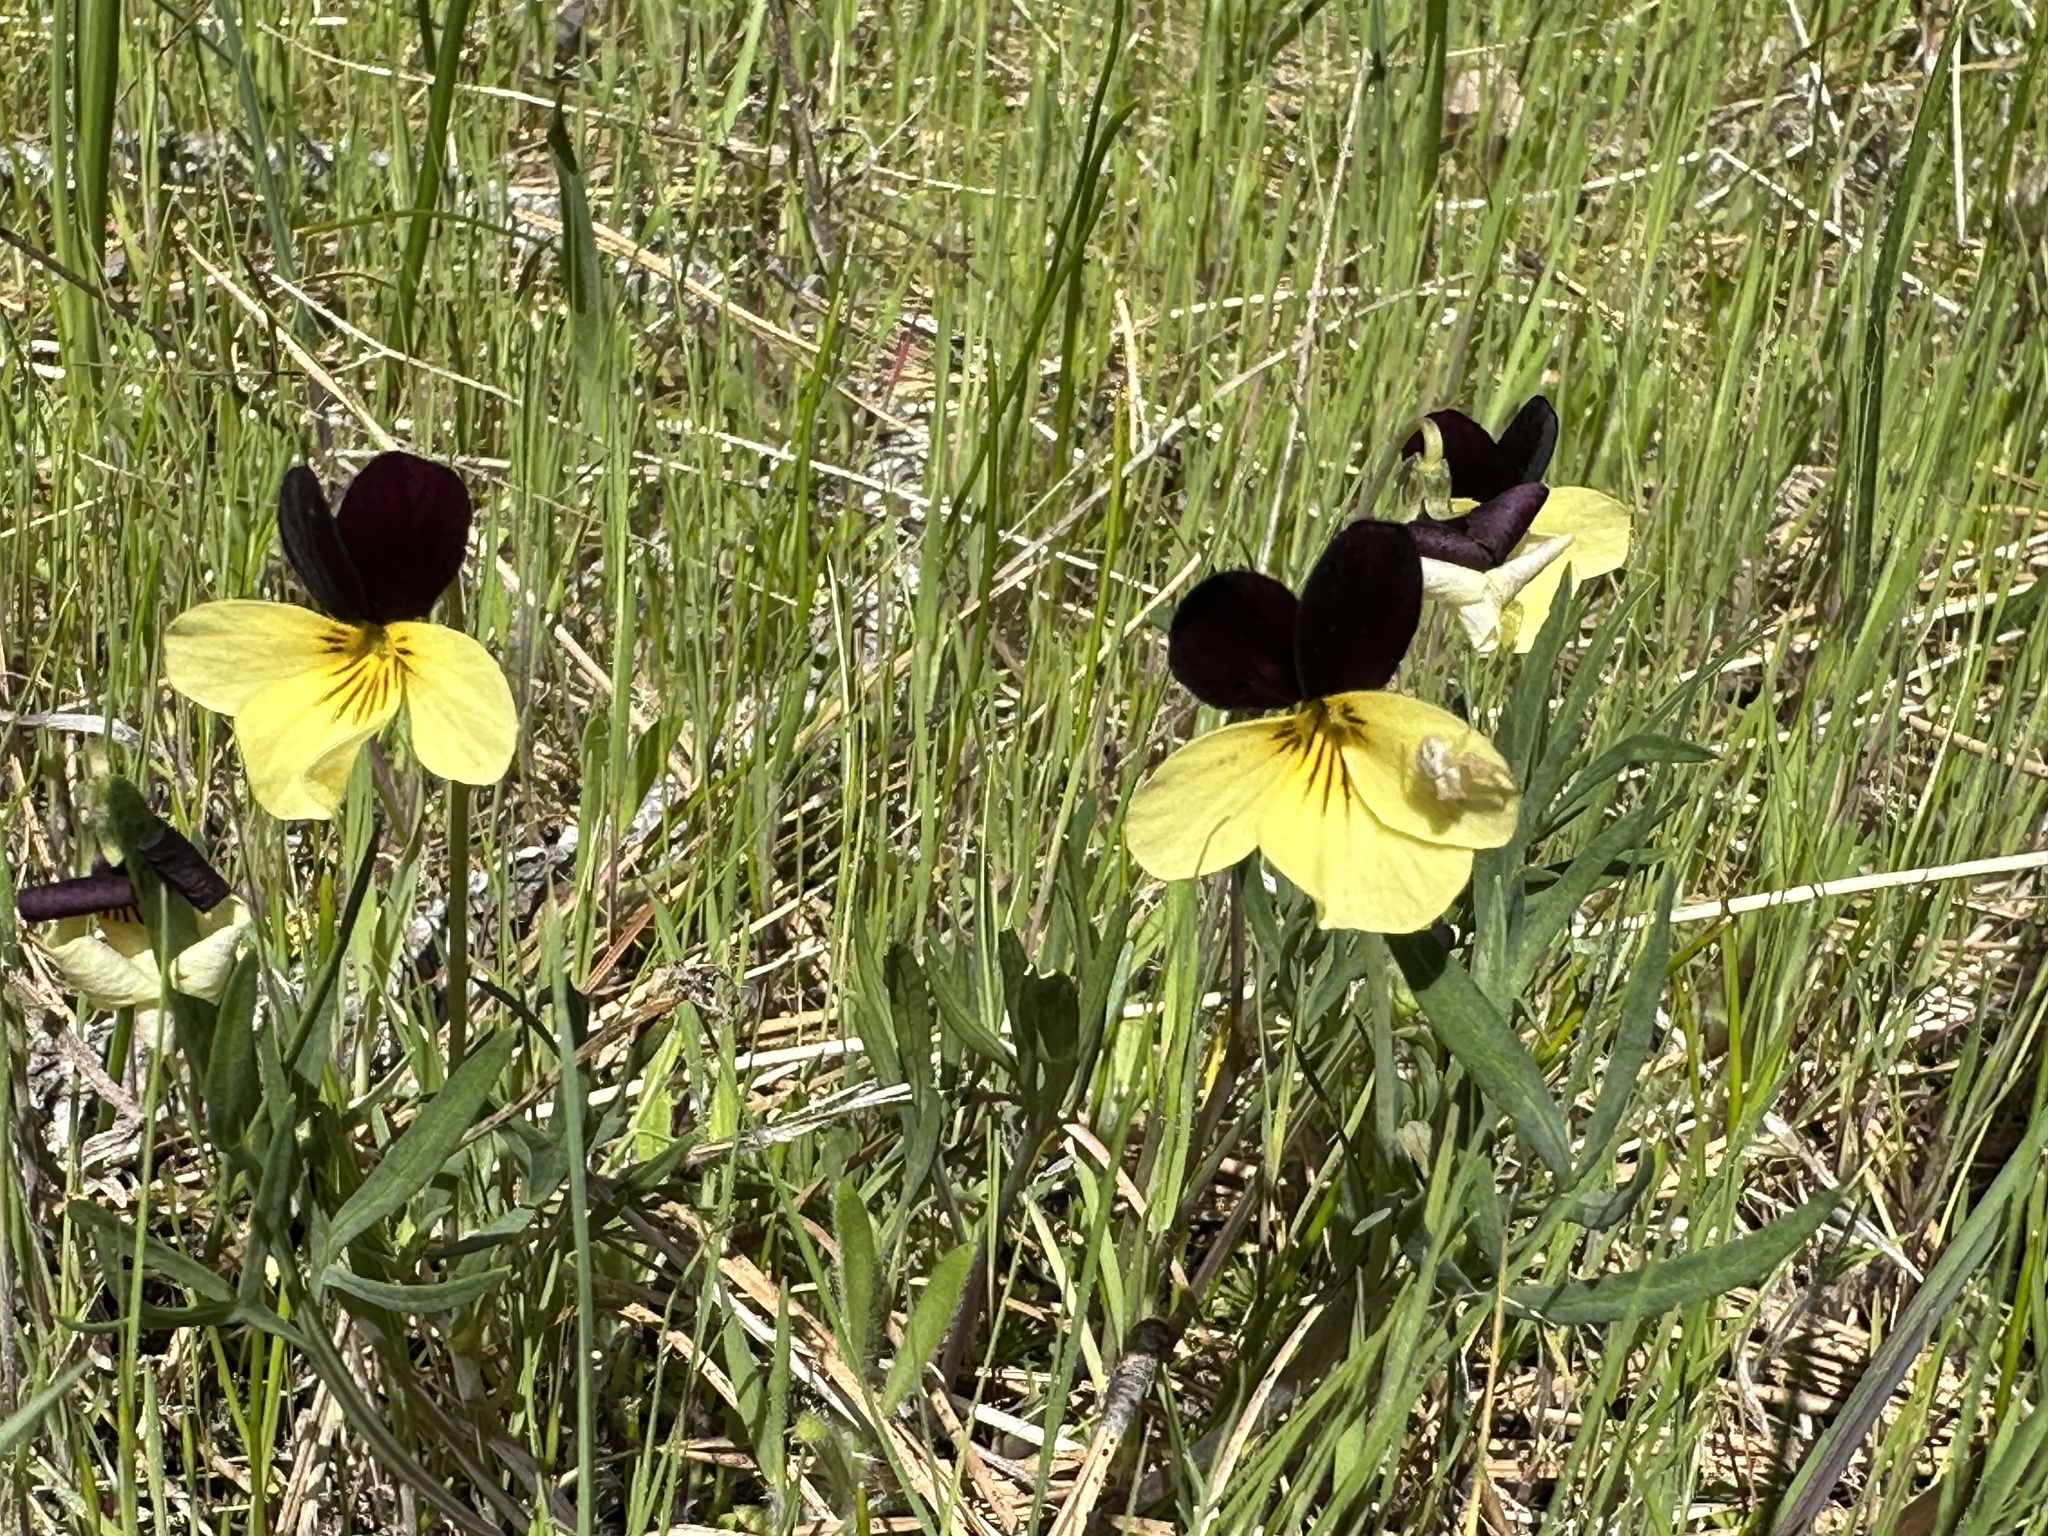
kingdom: Plantae
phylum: Tracheophyta
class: Magnoliopsida
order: Malpighiales
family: Violaceae
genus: Viola
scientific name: Viola hallii
